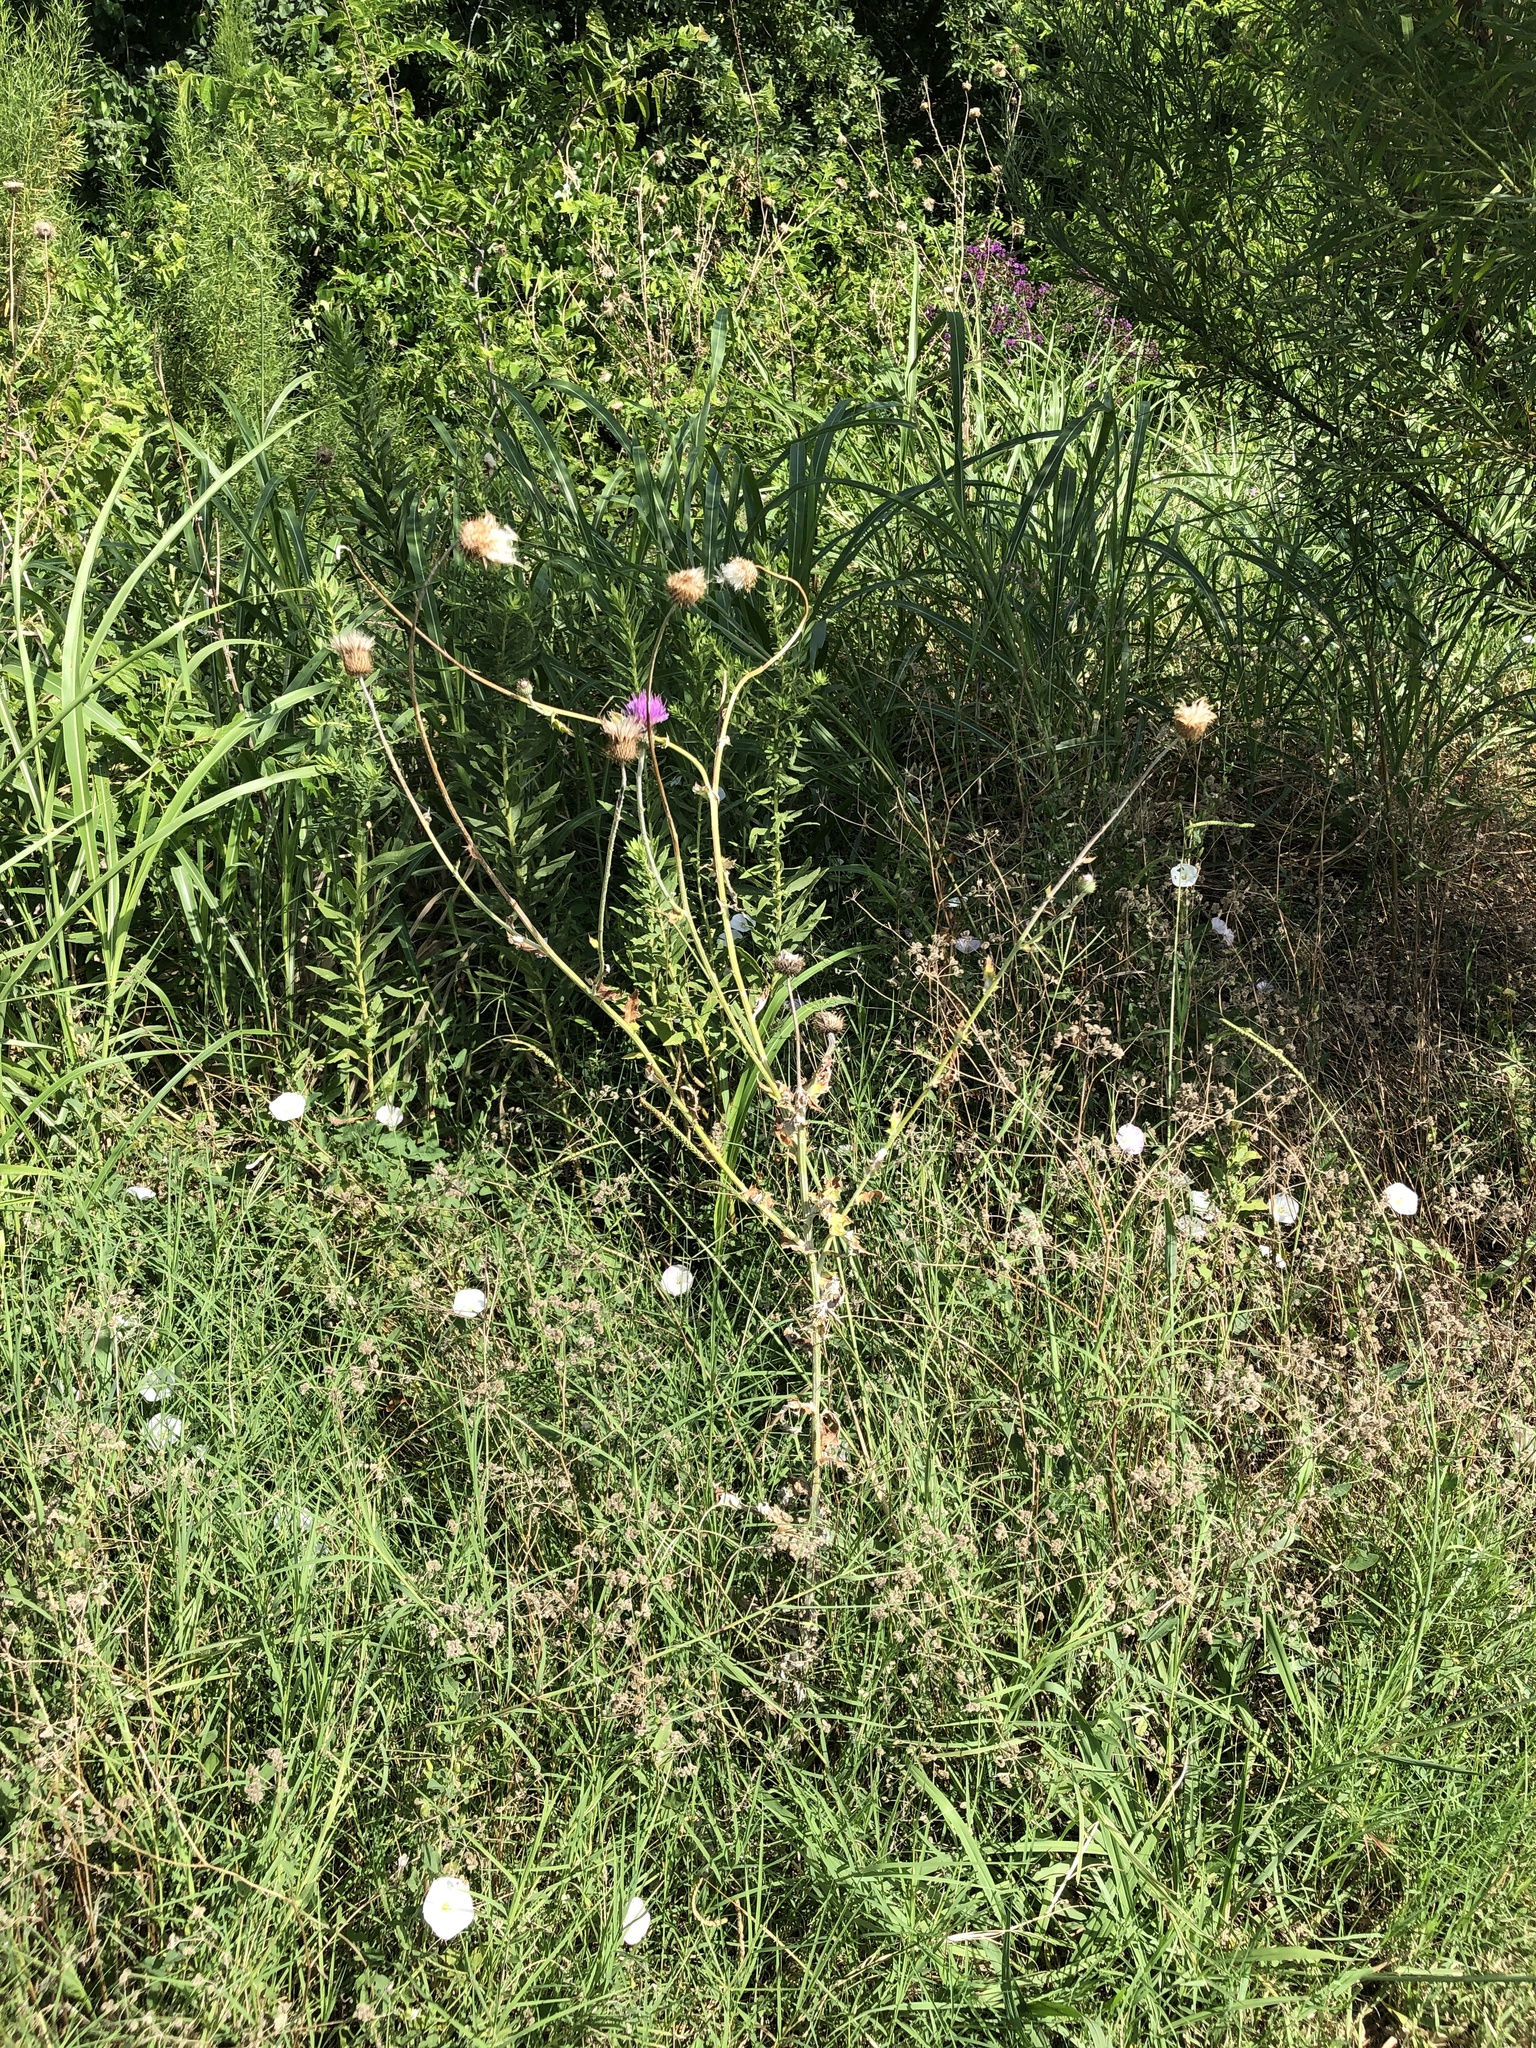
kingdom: Plantae
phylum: Tracheophyta
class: Magnoliopsida
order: Asterales
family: Asteraceae
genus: Cirsium
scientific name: Cirsium texanum
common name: Texas purple thistle
